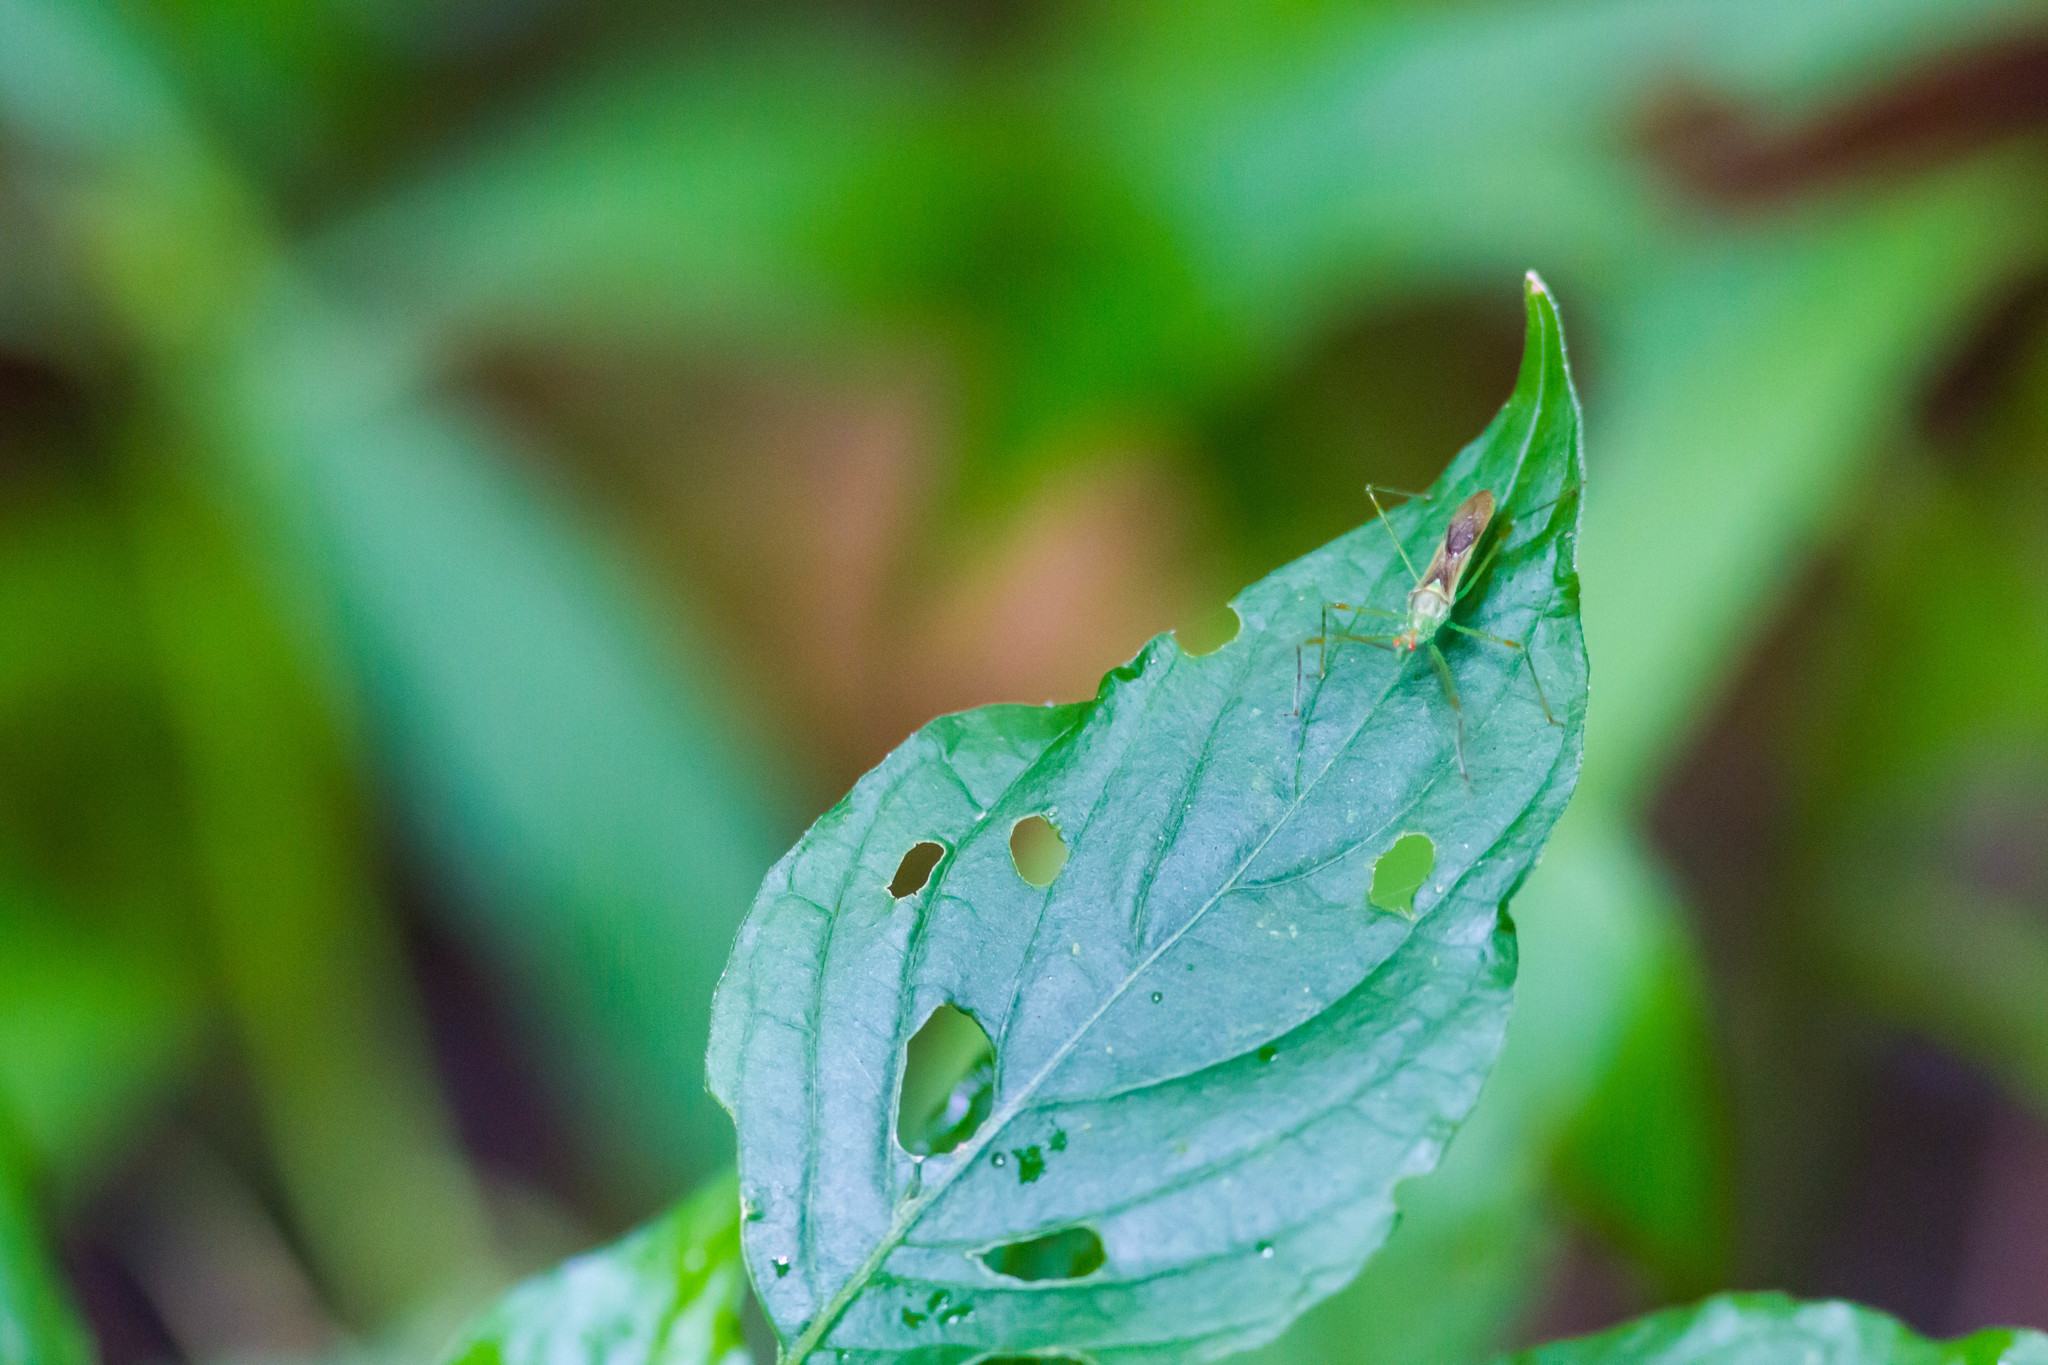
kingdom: Animalia
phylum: Arthropoda
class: Insecta
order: Hemiptera
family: Reduviidae
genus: Zelus
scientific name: Zelus luridus
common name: Pale green assassin bug
